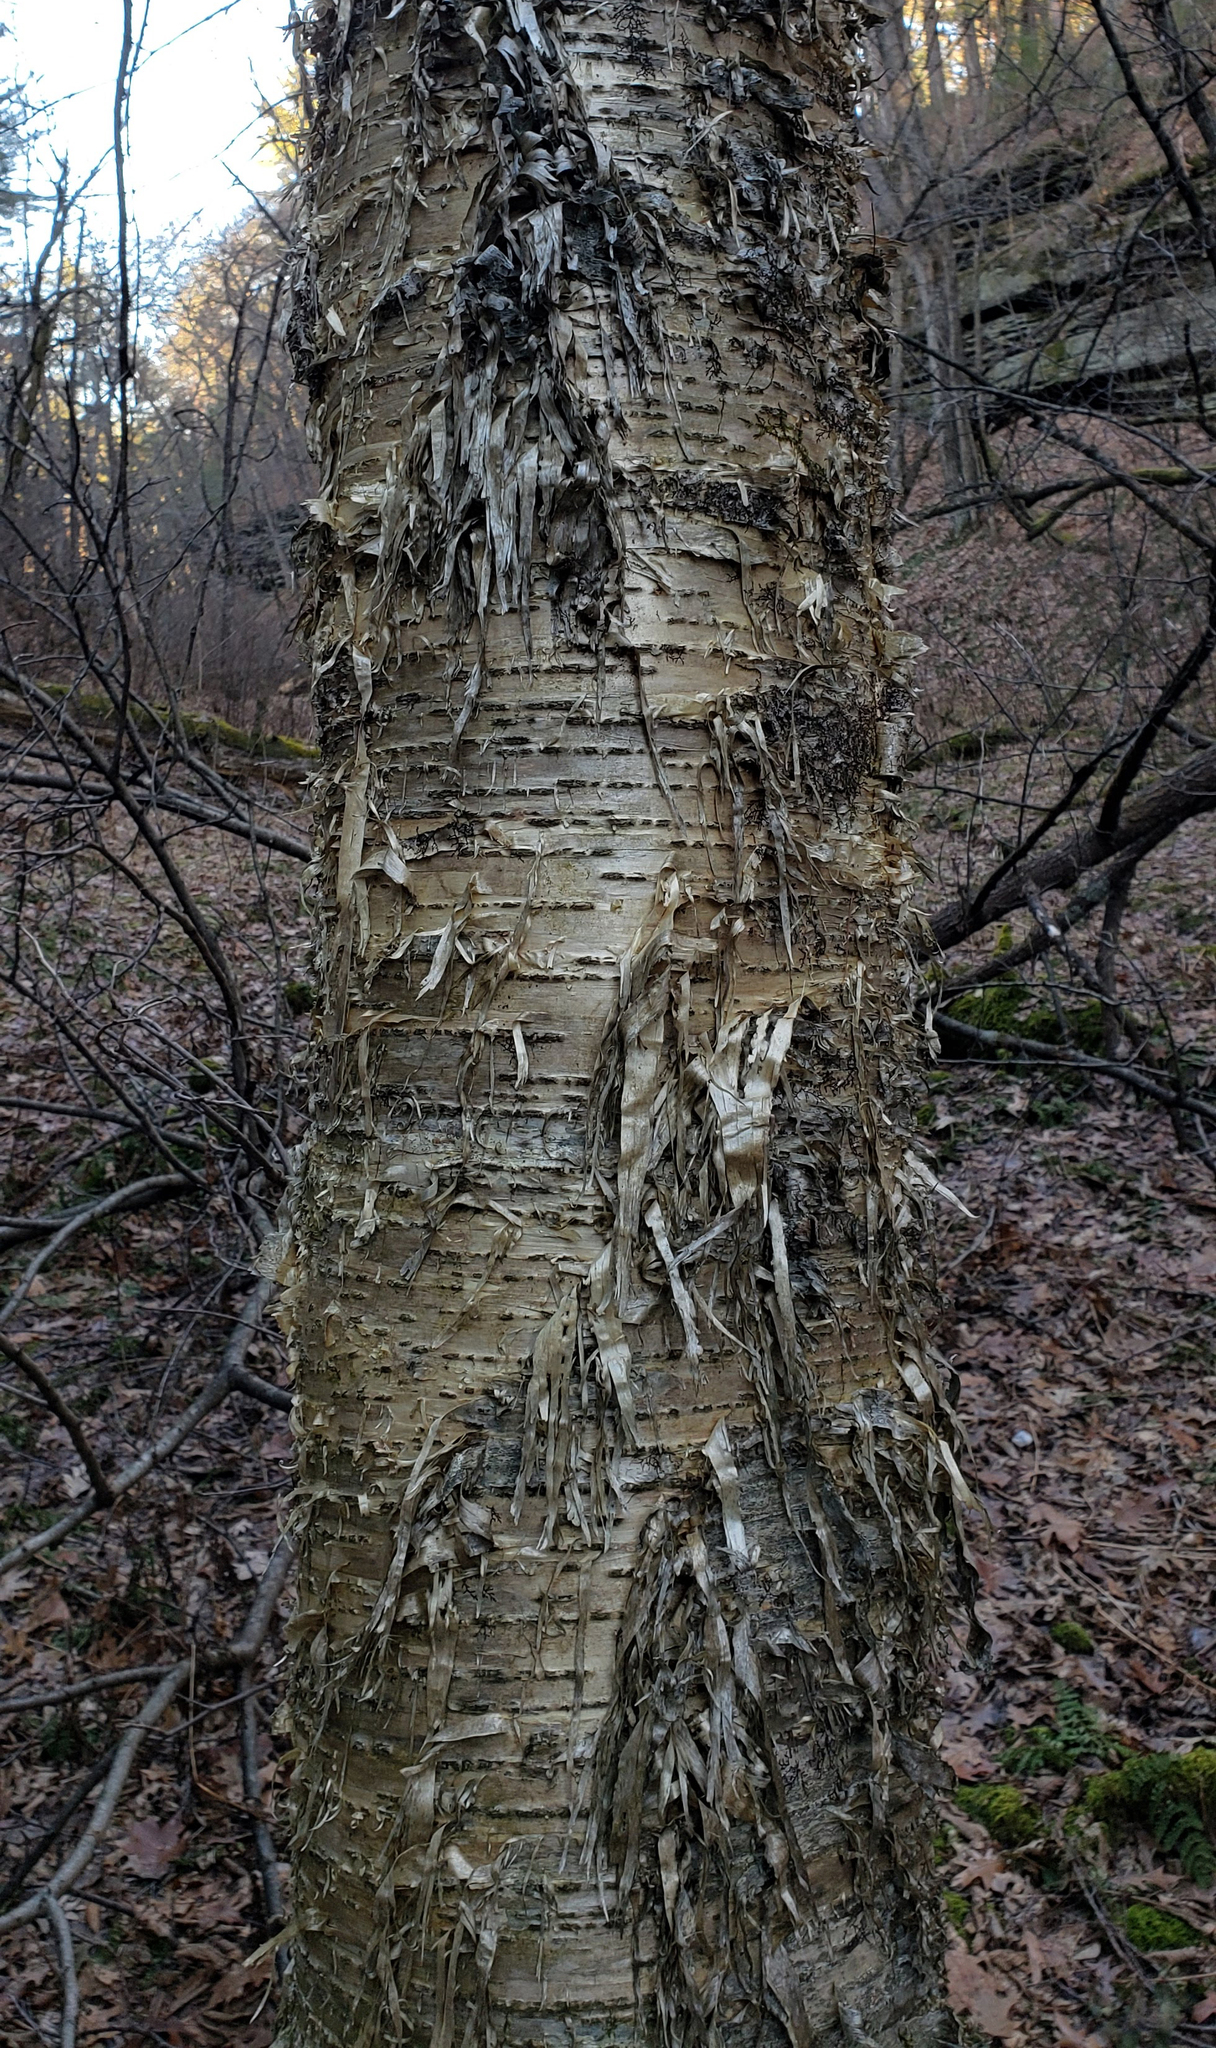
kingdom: Plantae
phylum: Tracheophyta
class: Magnoliopsida
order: Fagales
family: Betulaceae
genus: Betula
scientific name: Betula alleghaniensis
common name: Yellow birch
